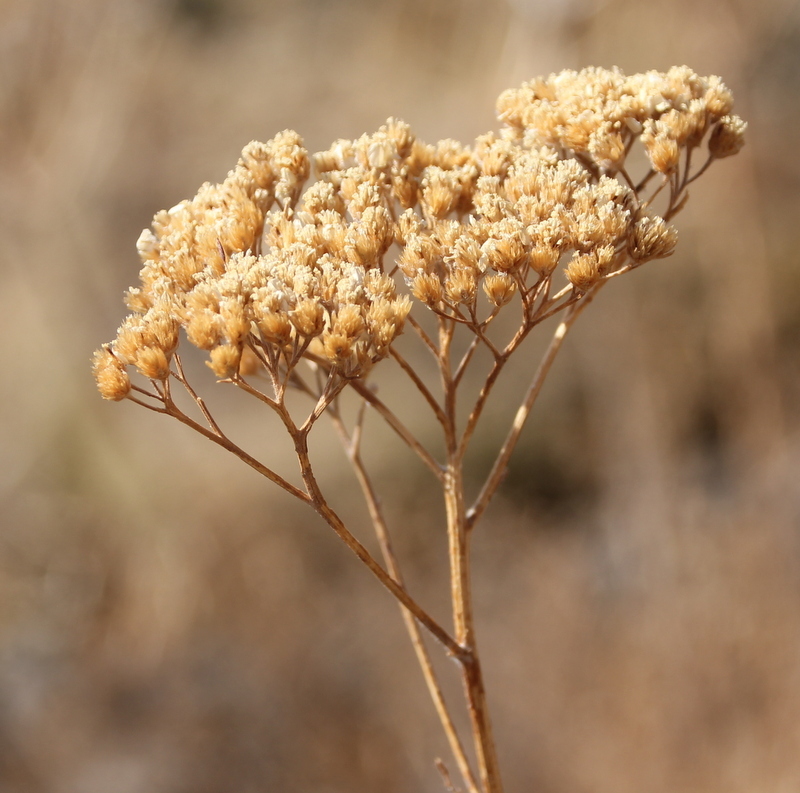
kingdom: Plantae
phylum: Tracheophyta
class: Magnoliopsida
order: Asterales
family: Asteraceae
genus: Achillea
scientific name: Achillea millefolium
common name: Yarrow
